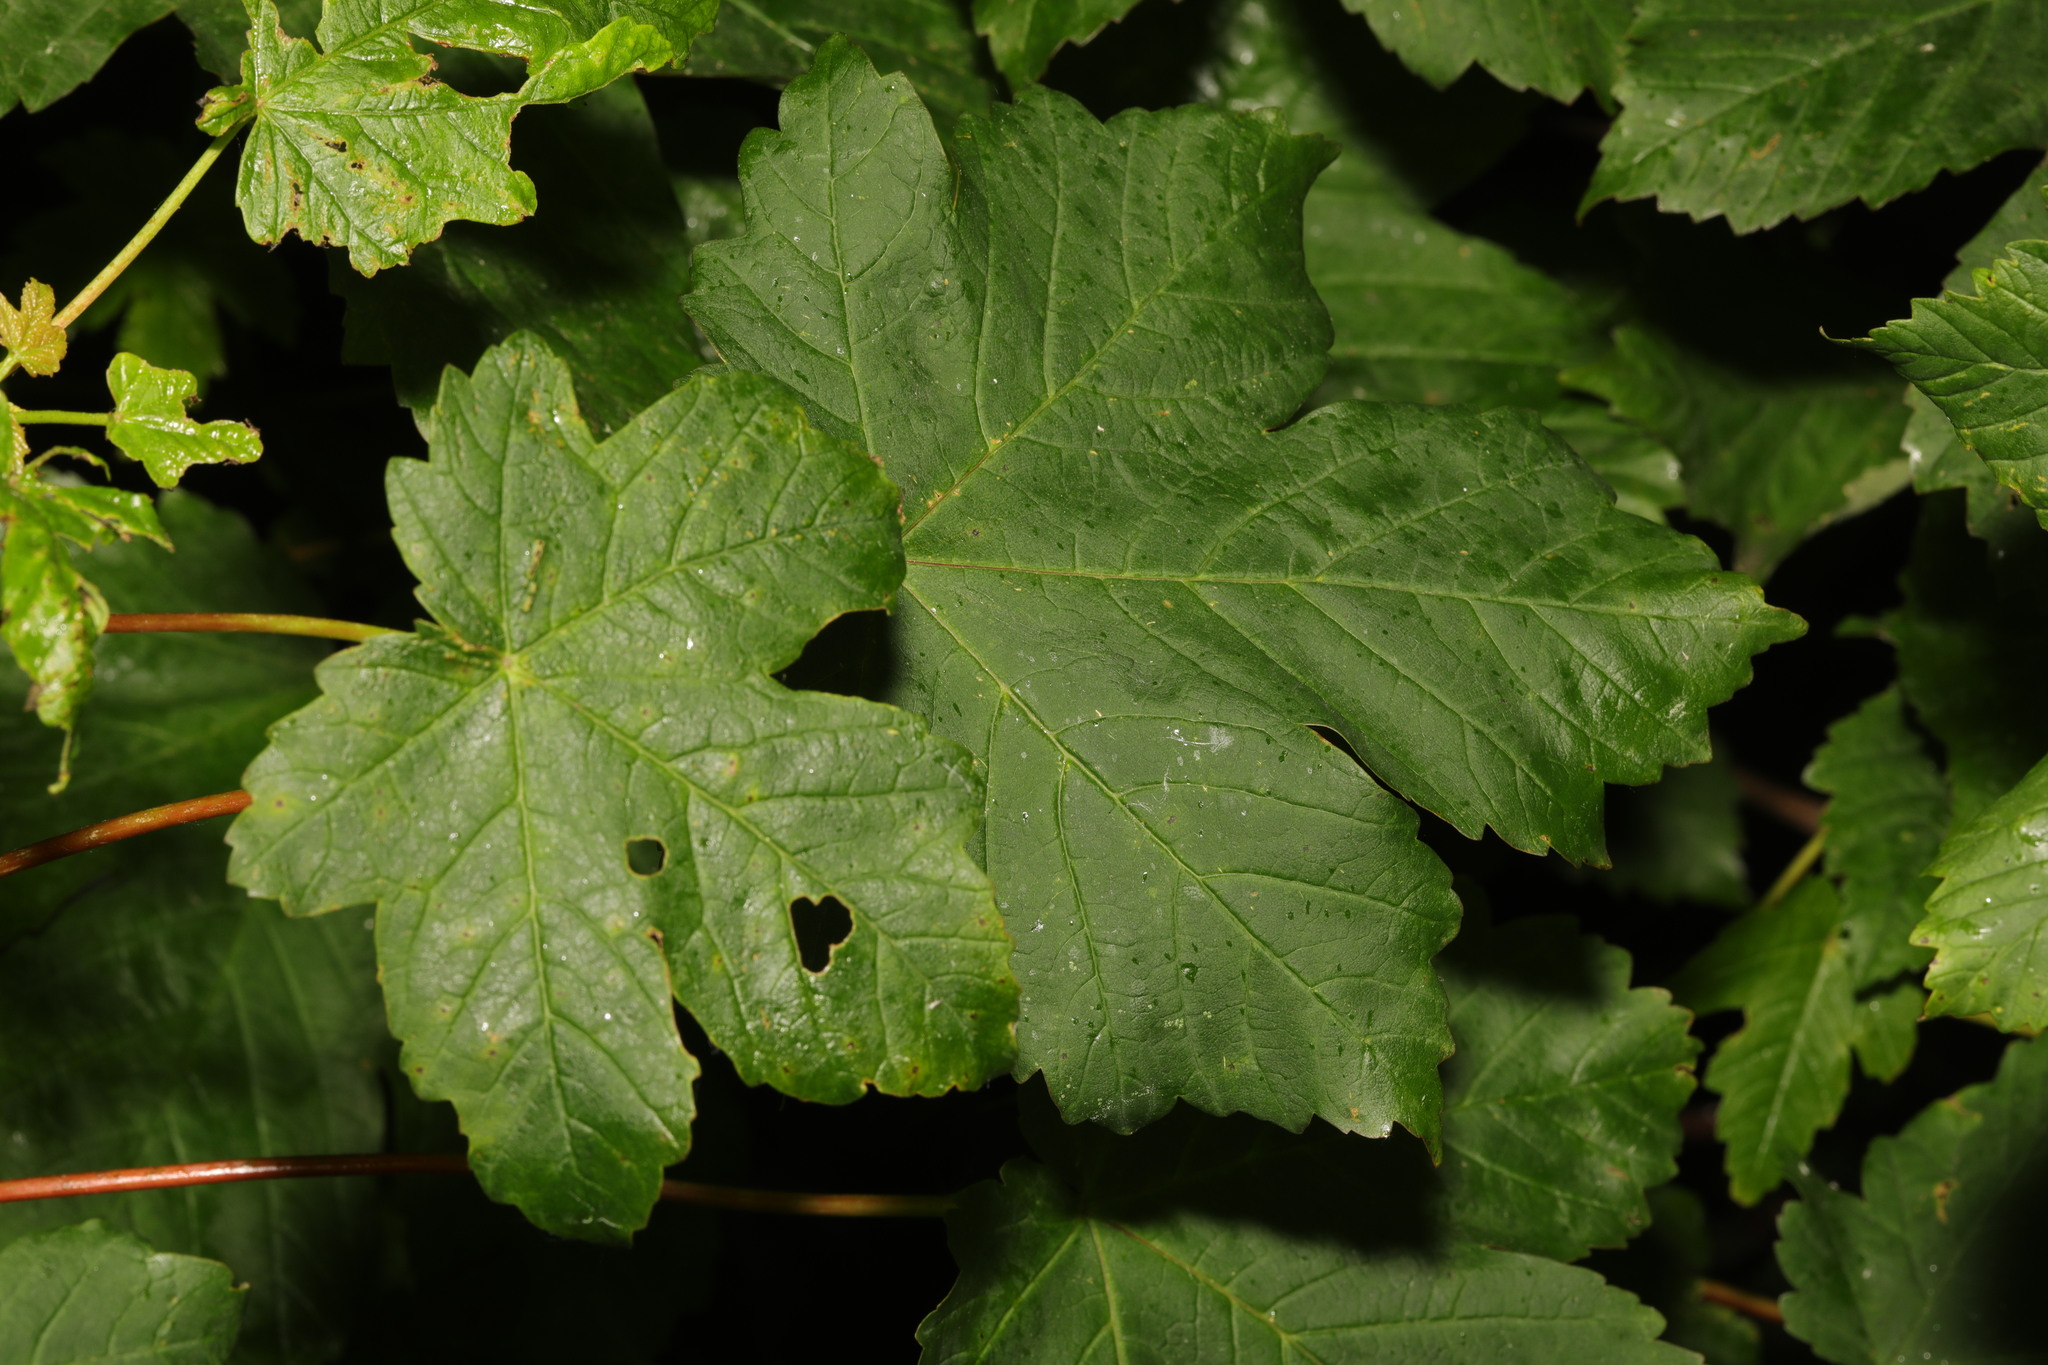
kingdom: Plantae
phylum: Tracheophyta
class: Magnoliopsida
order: Sapindales
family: Sapindaceae
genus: Acer
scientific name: Acer pseudoplatanus
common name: Sycamore
